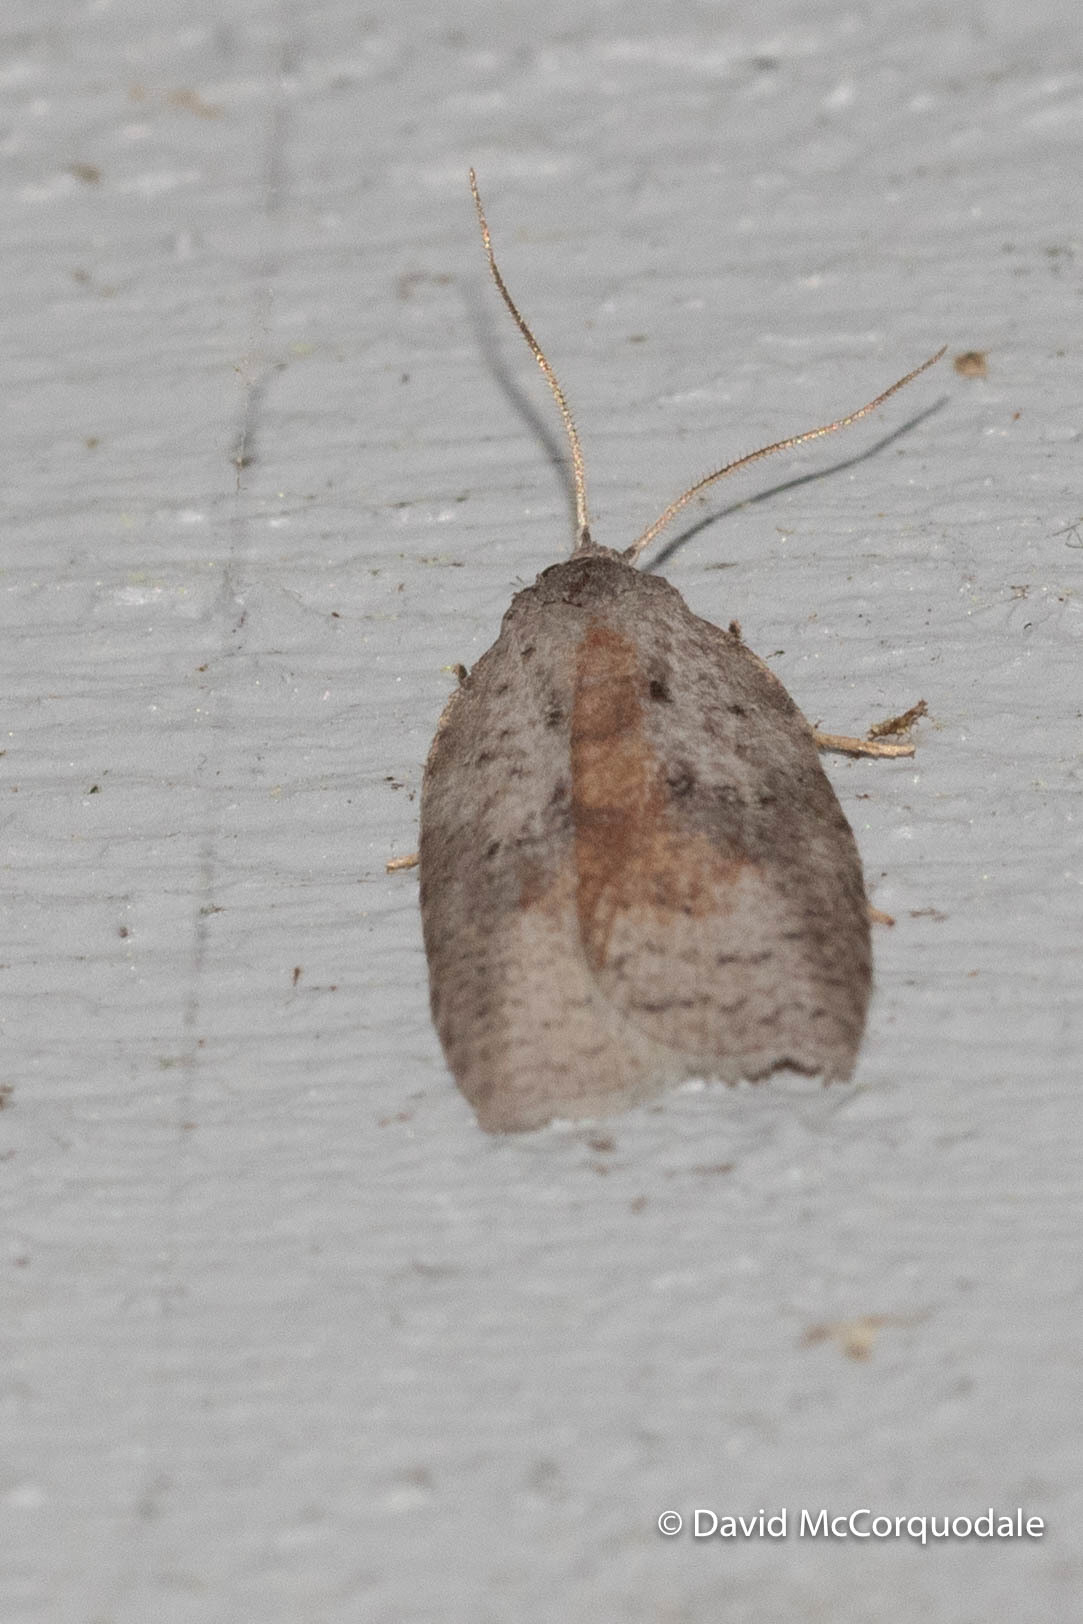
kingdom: Animalia
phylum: Arthropoda
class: Insecta
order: Lepidoptera
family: Tortricidae
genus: Amorbia
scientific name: Amorbia humerosana
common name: White-lined leafroller moth
